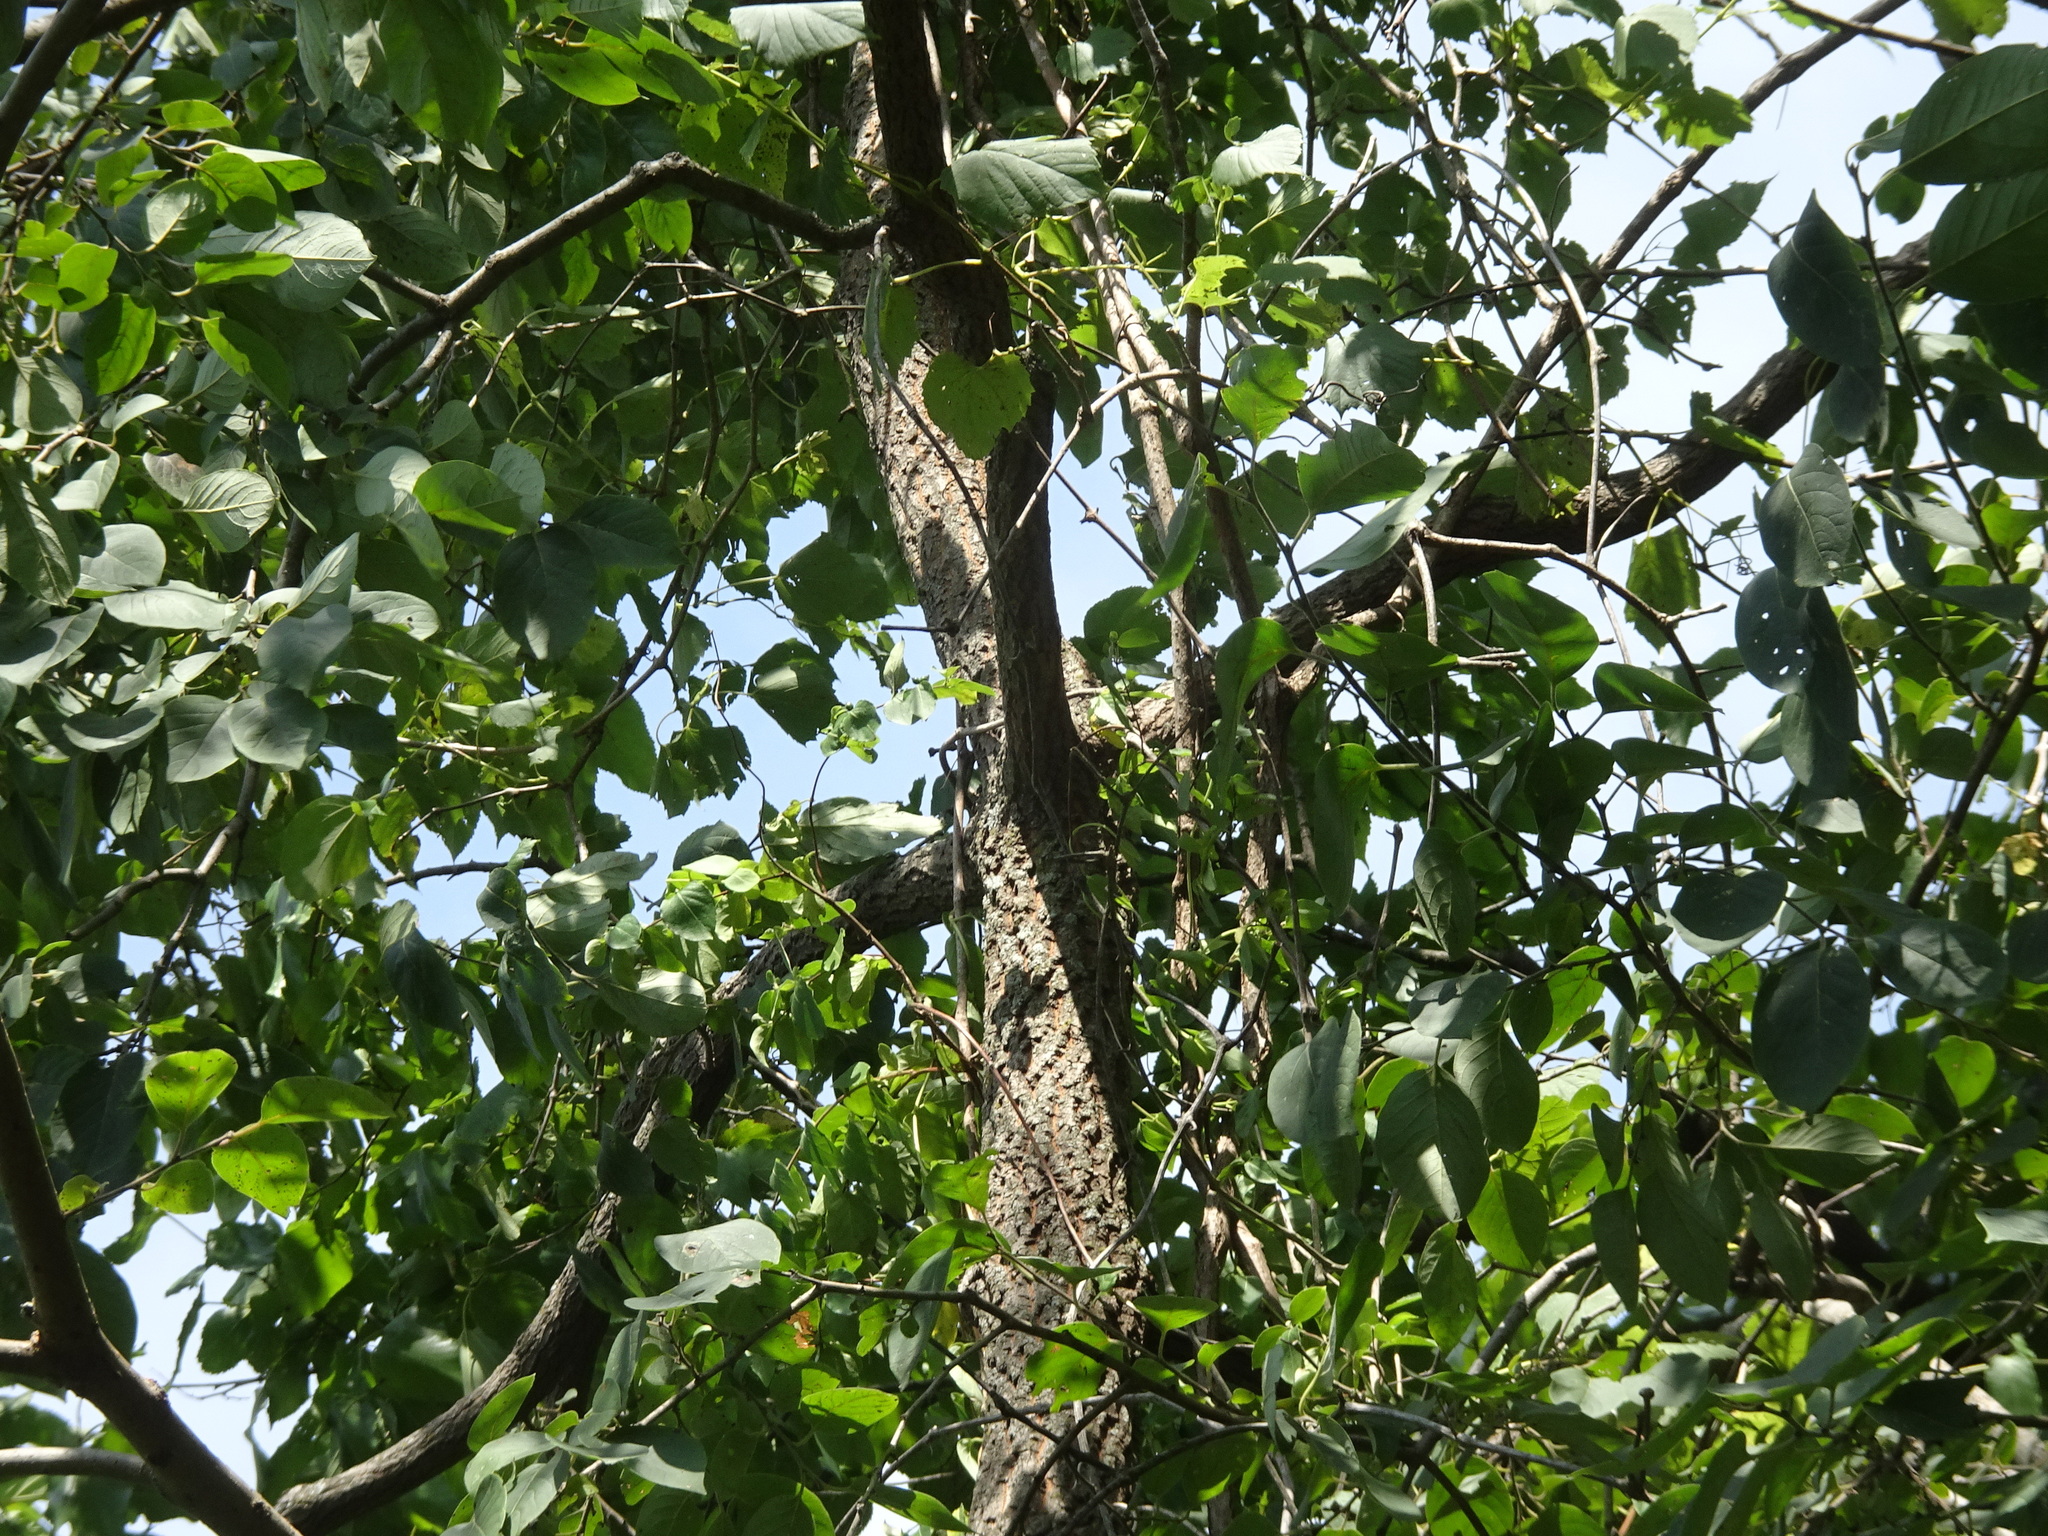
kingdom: Plantae
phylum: Tracheophyta
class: Magnoliopsida
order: Ericales
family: Ebenaceae
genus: Diospyros
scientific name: Diospyros virginiana
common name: Persimmon
